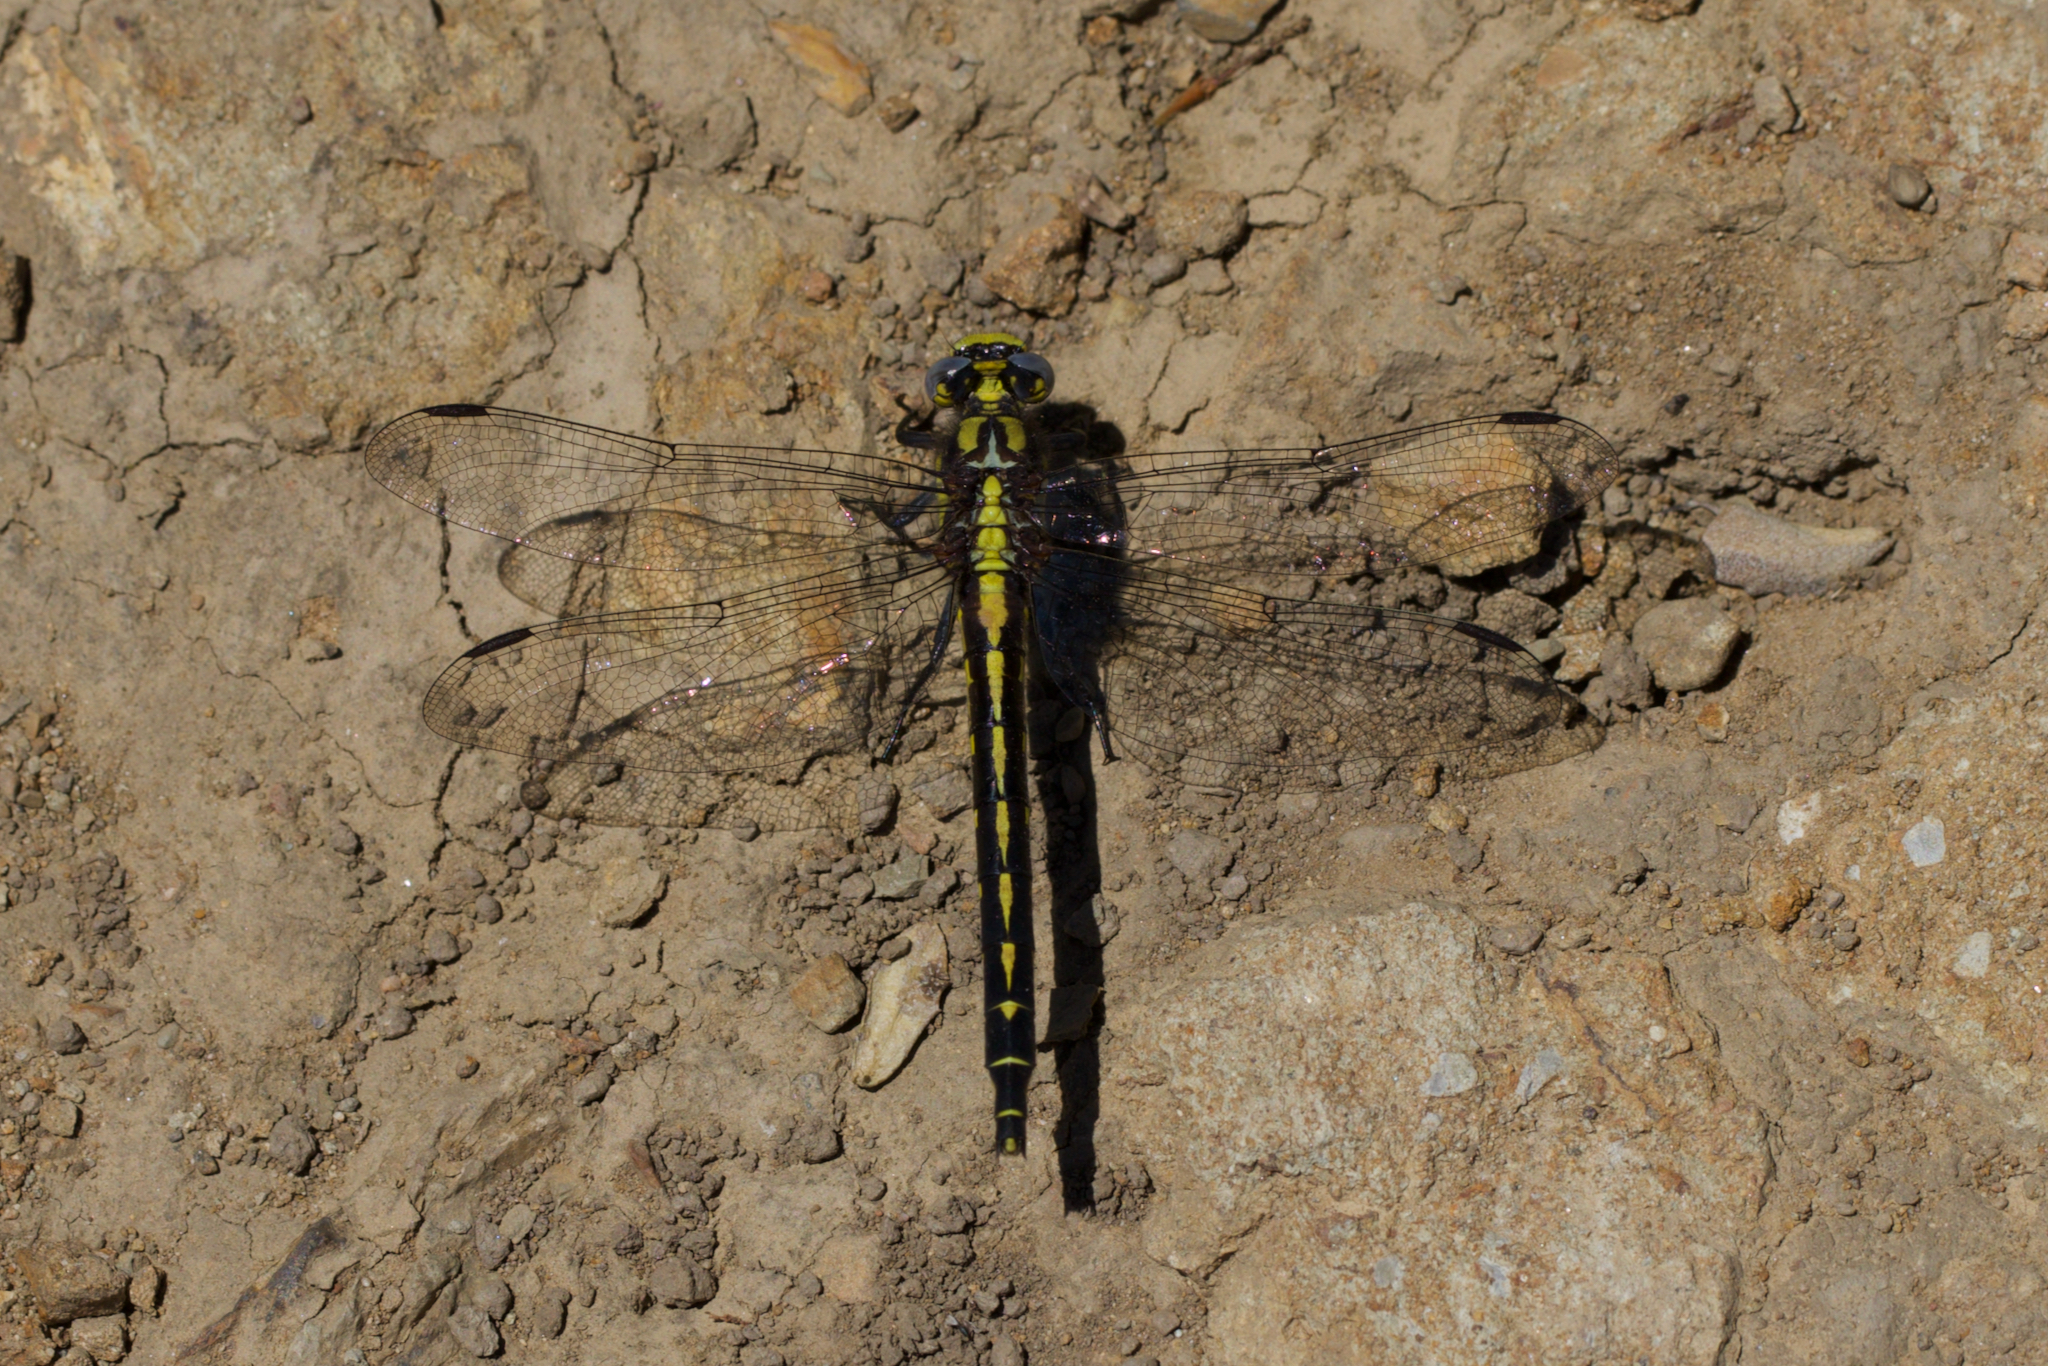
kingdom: Animalia
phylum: Arthropoda
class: Insecta
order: Odonata
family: Gomphidae
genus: Phanogomphus
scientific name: Phanogomphus kurilis
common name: Pacific clubtail
